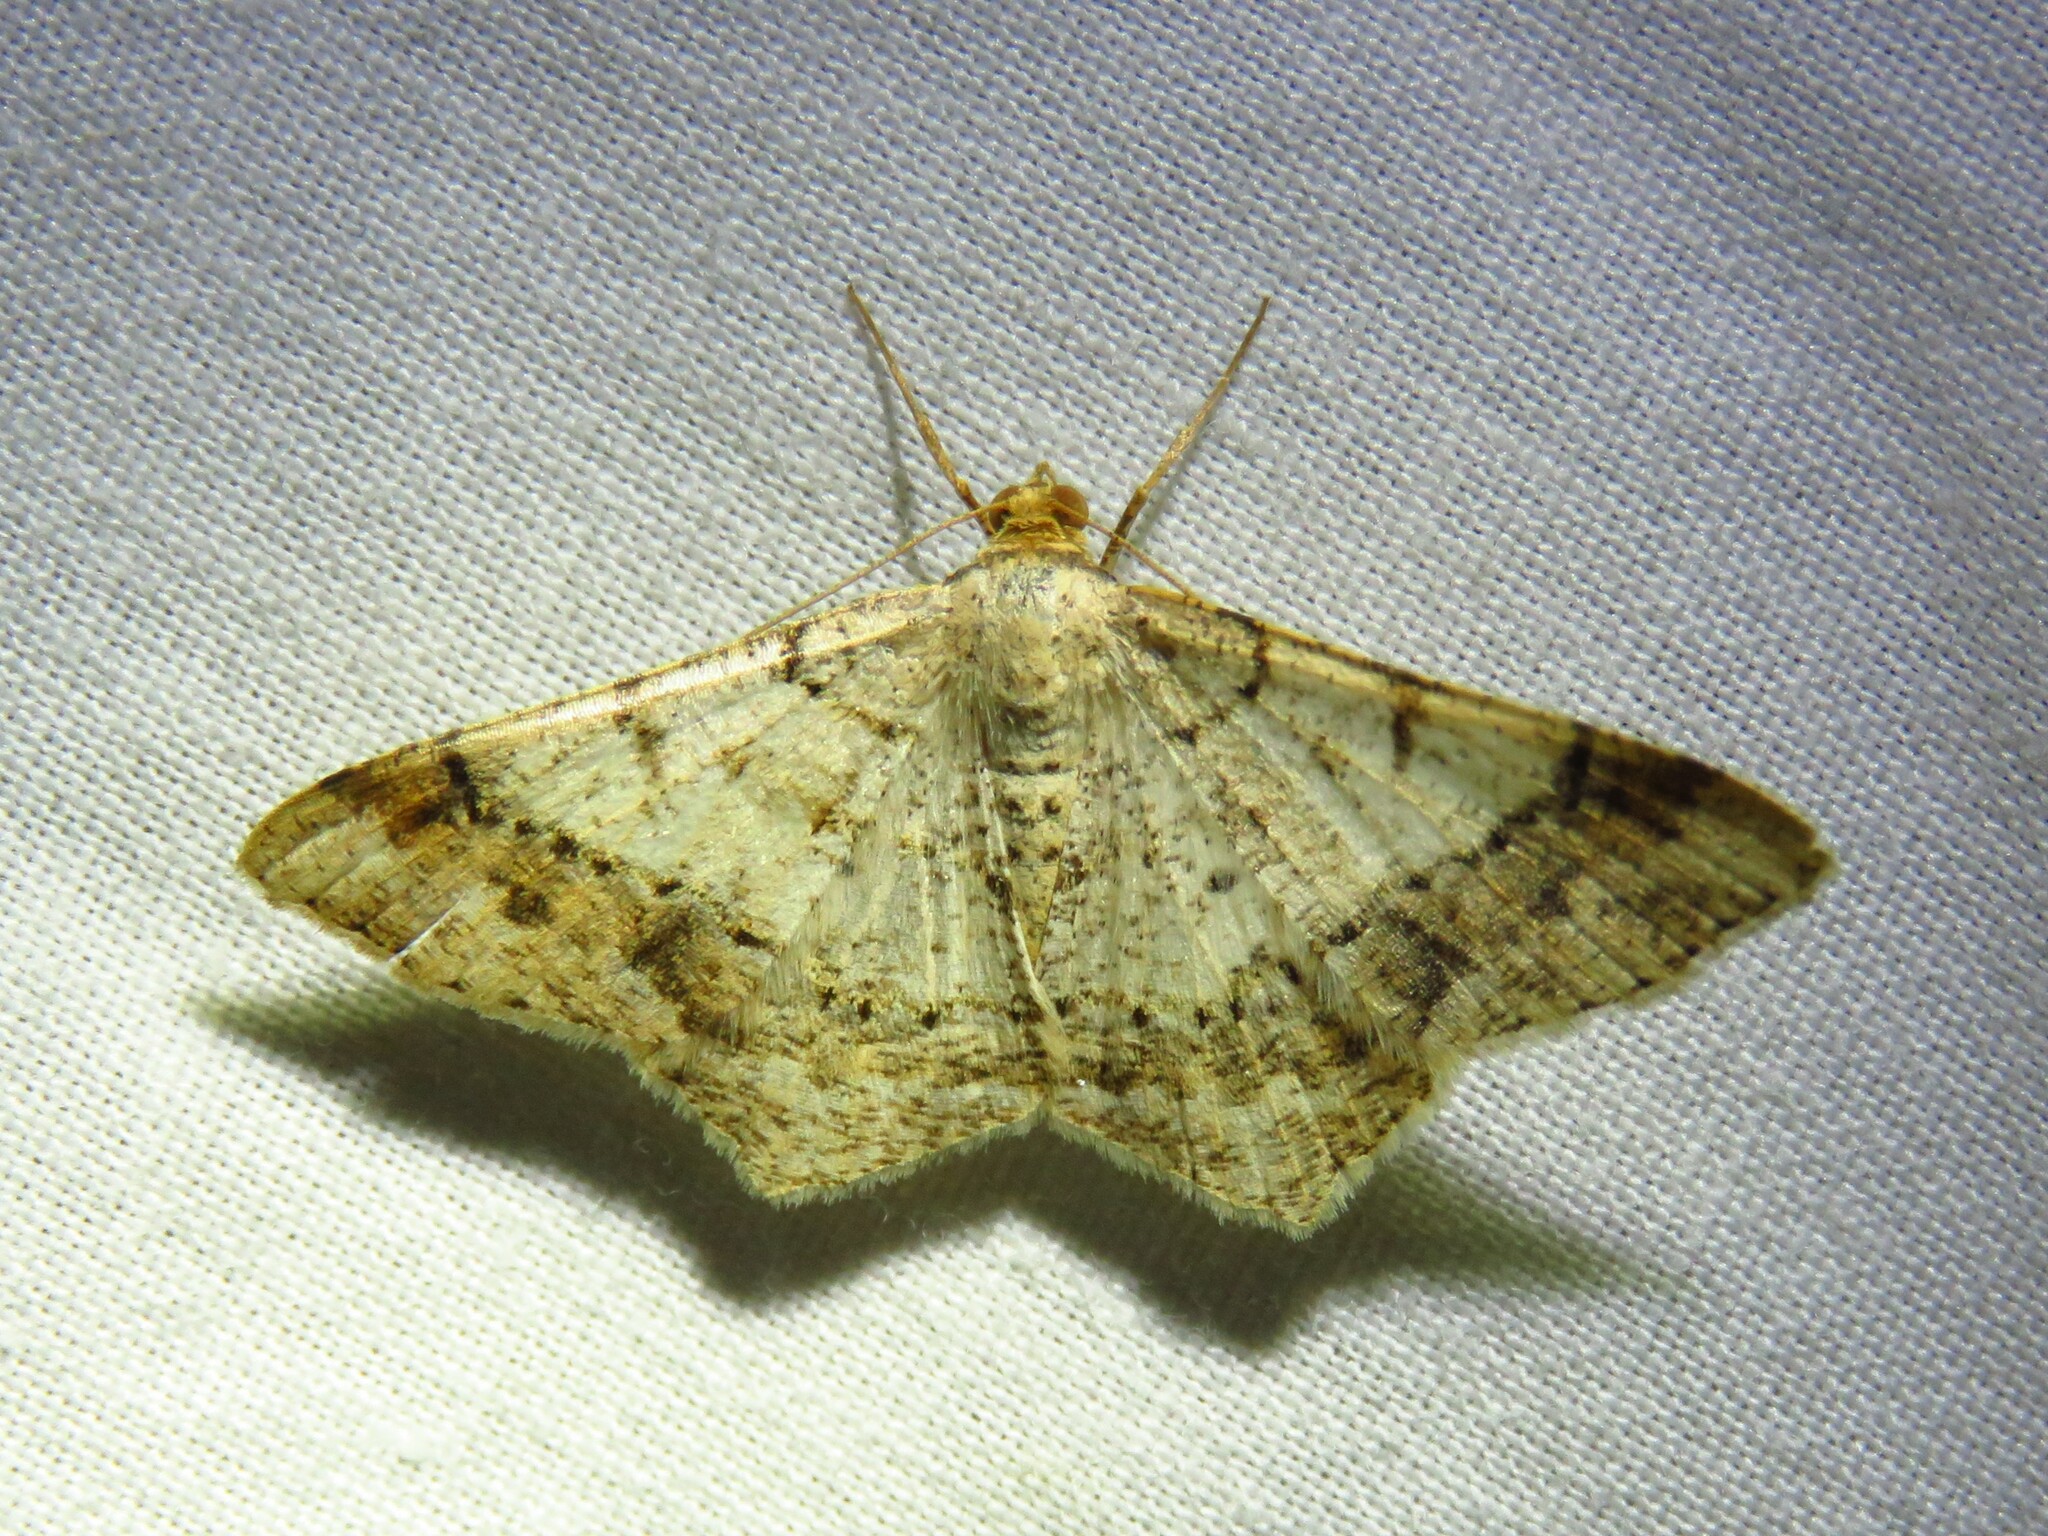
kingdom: Animalia
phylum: Arthropoda
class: Insecta
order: Lepidoptera
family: Geometridae
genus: Macaria
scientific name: Macaria abydata
